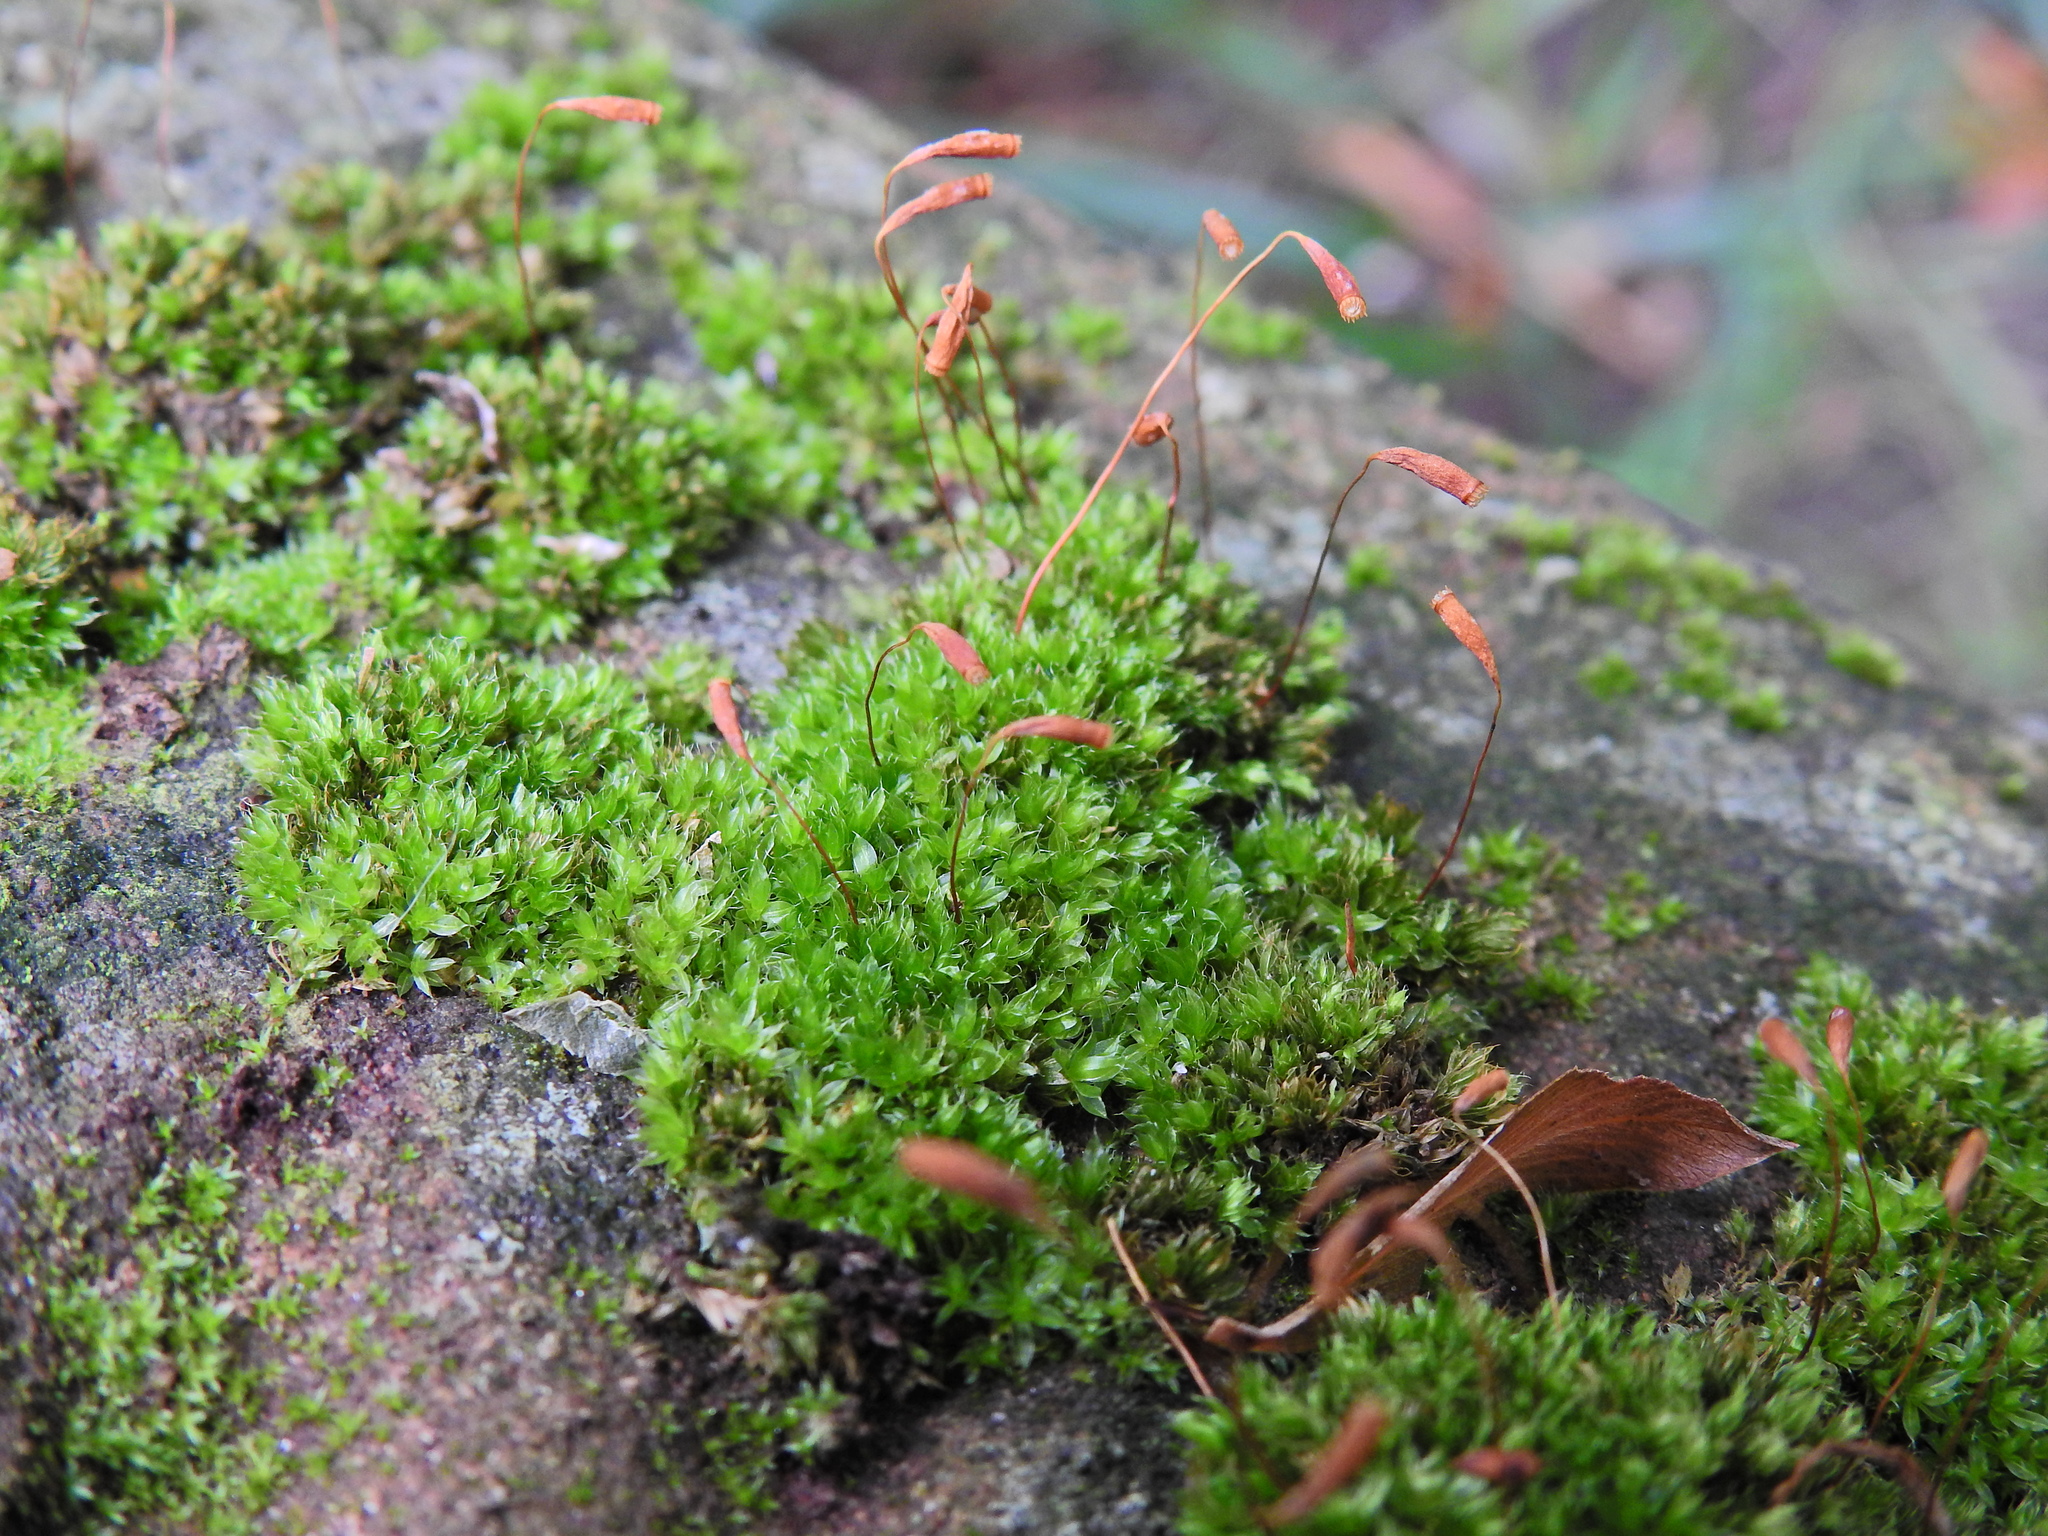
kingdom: Plantae
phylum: Bryophyta
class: Bryopsida
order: Bryales
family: Bryaceae
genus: Rosulabryum
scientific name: Rosulabryum capillare
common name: Capillary thread-moss
